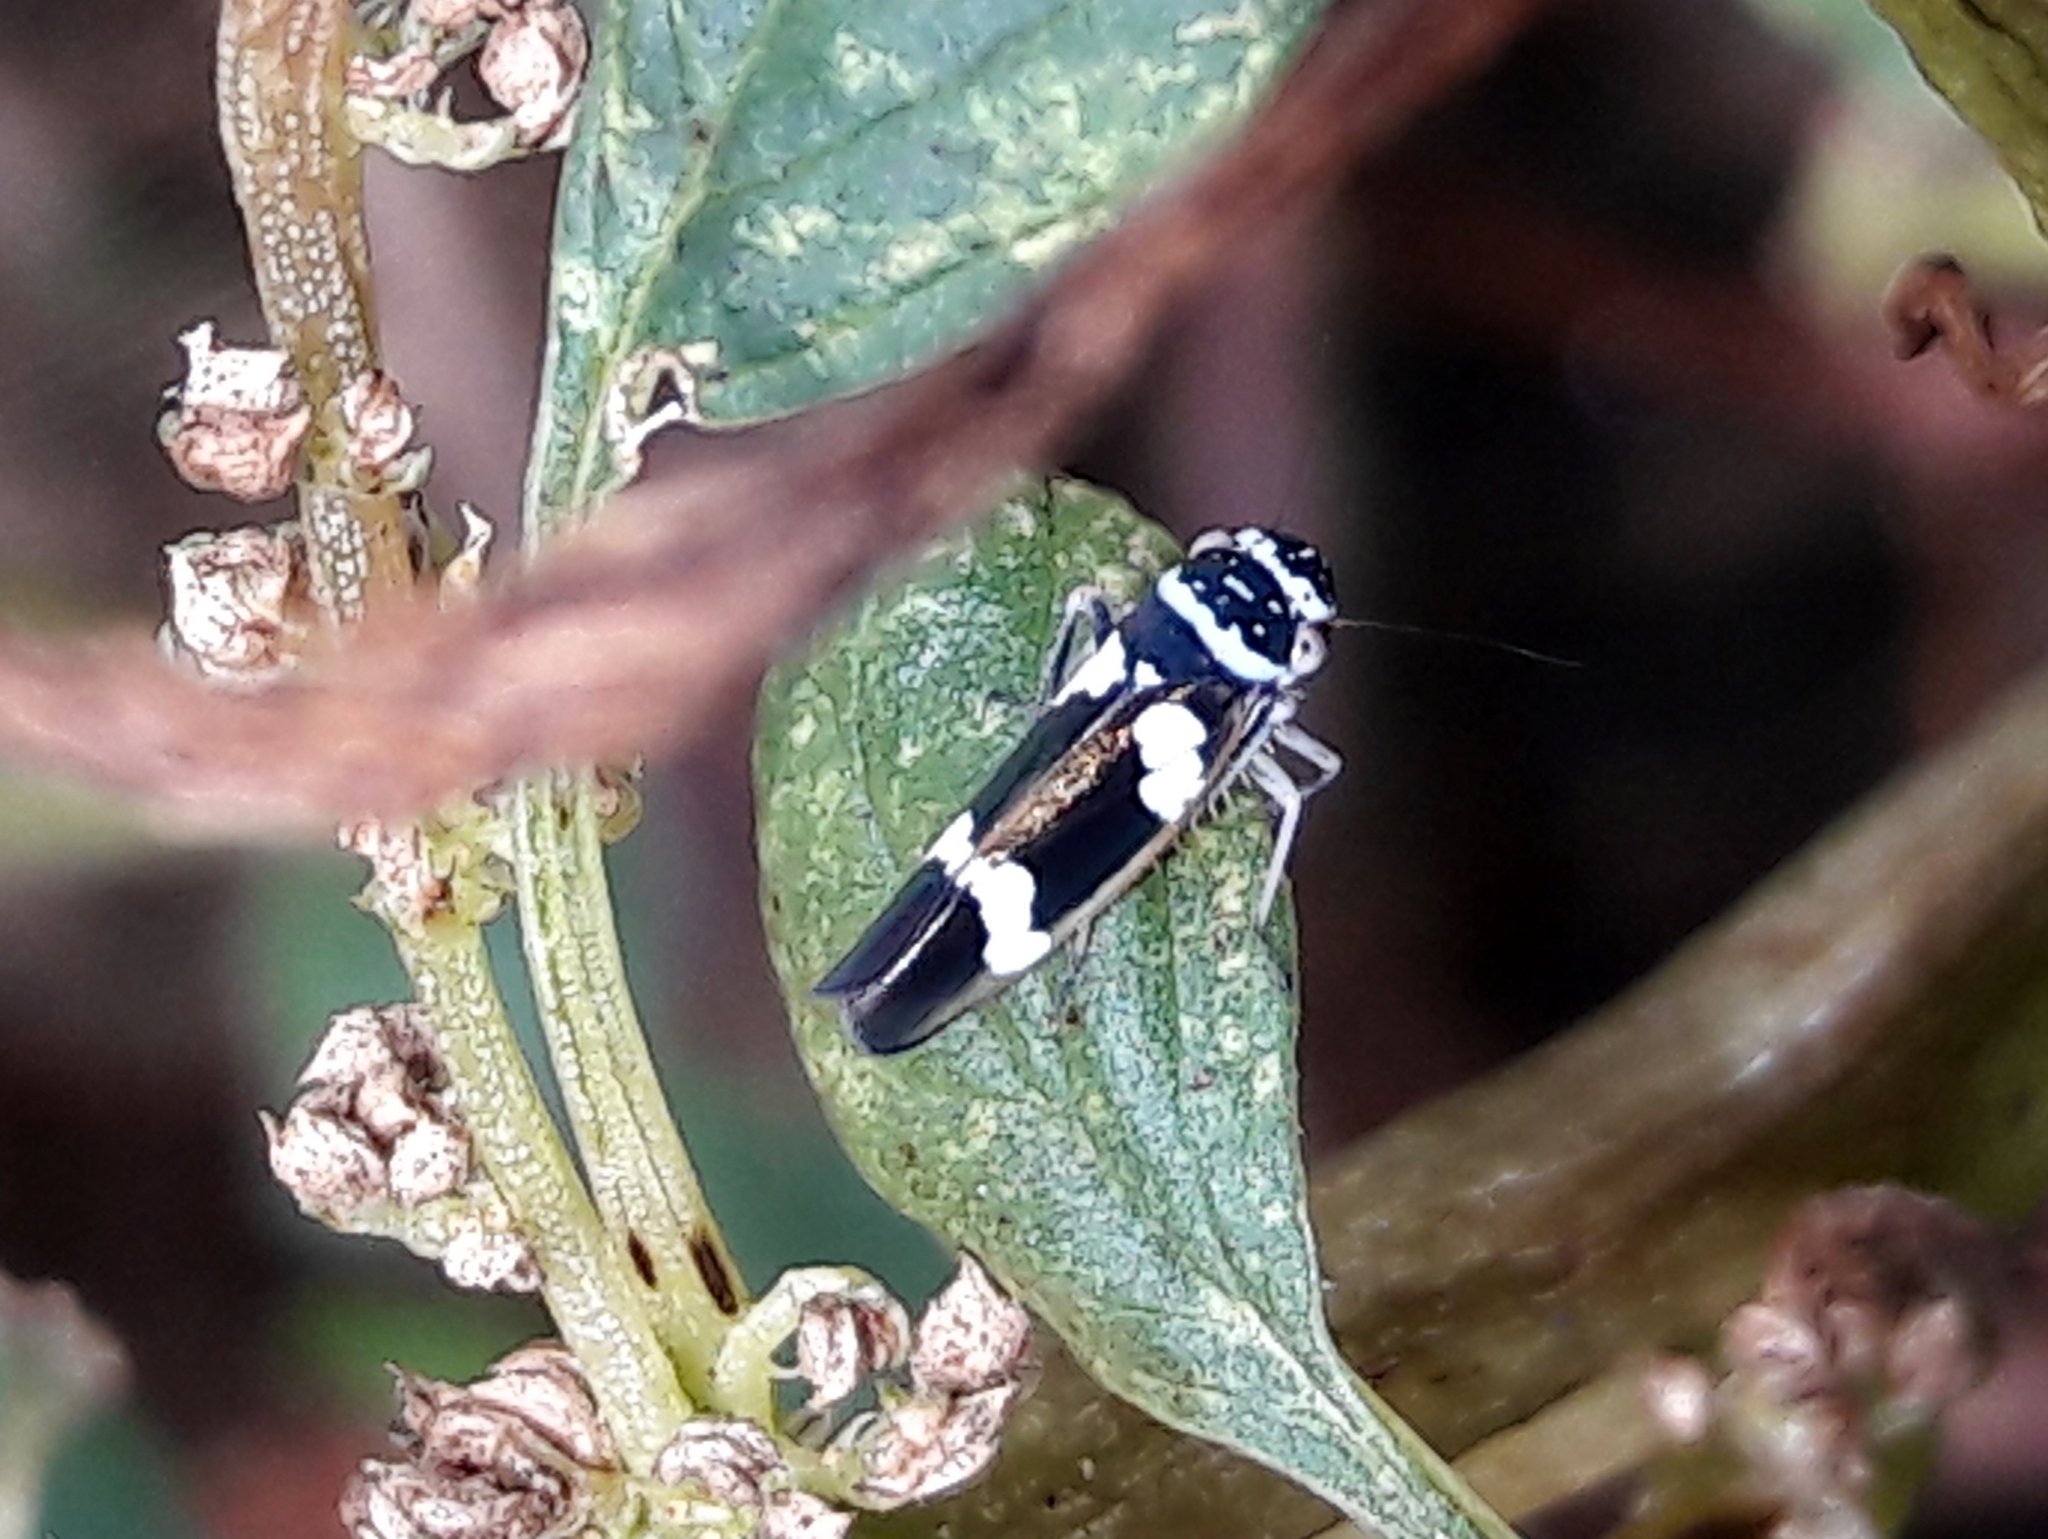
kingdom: Animalia
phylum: Arthropoda
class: Insecta
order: Hemiptera
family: Cicadellidae
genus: Macugonalia
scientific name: Macugonalia leucomelas
